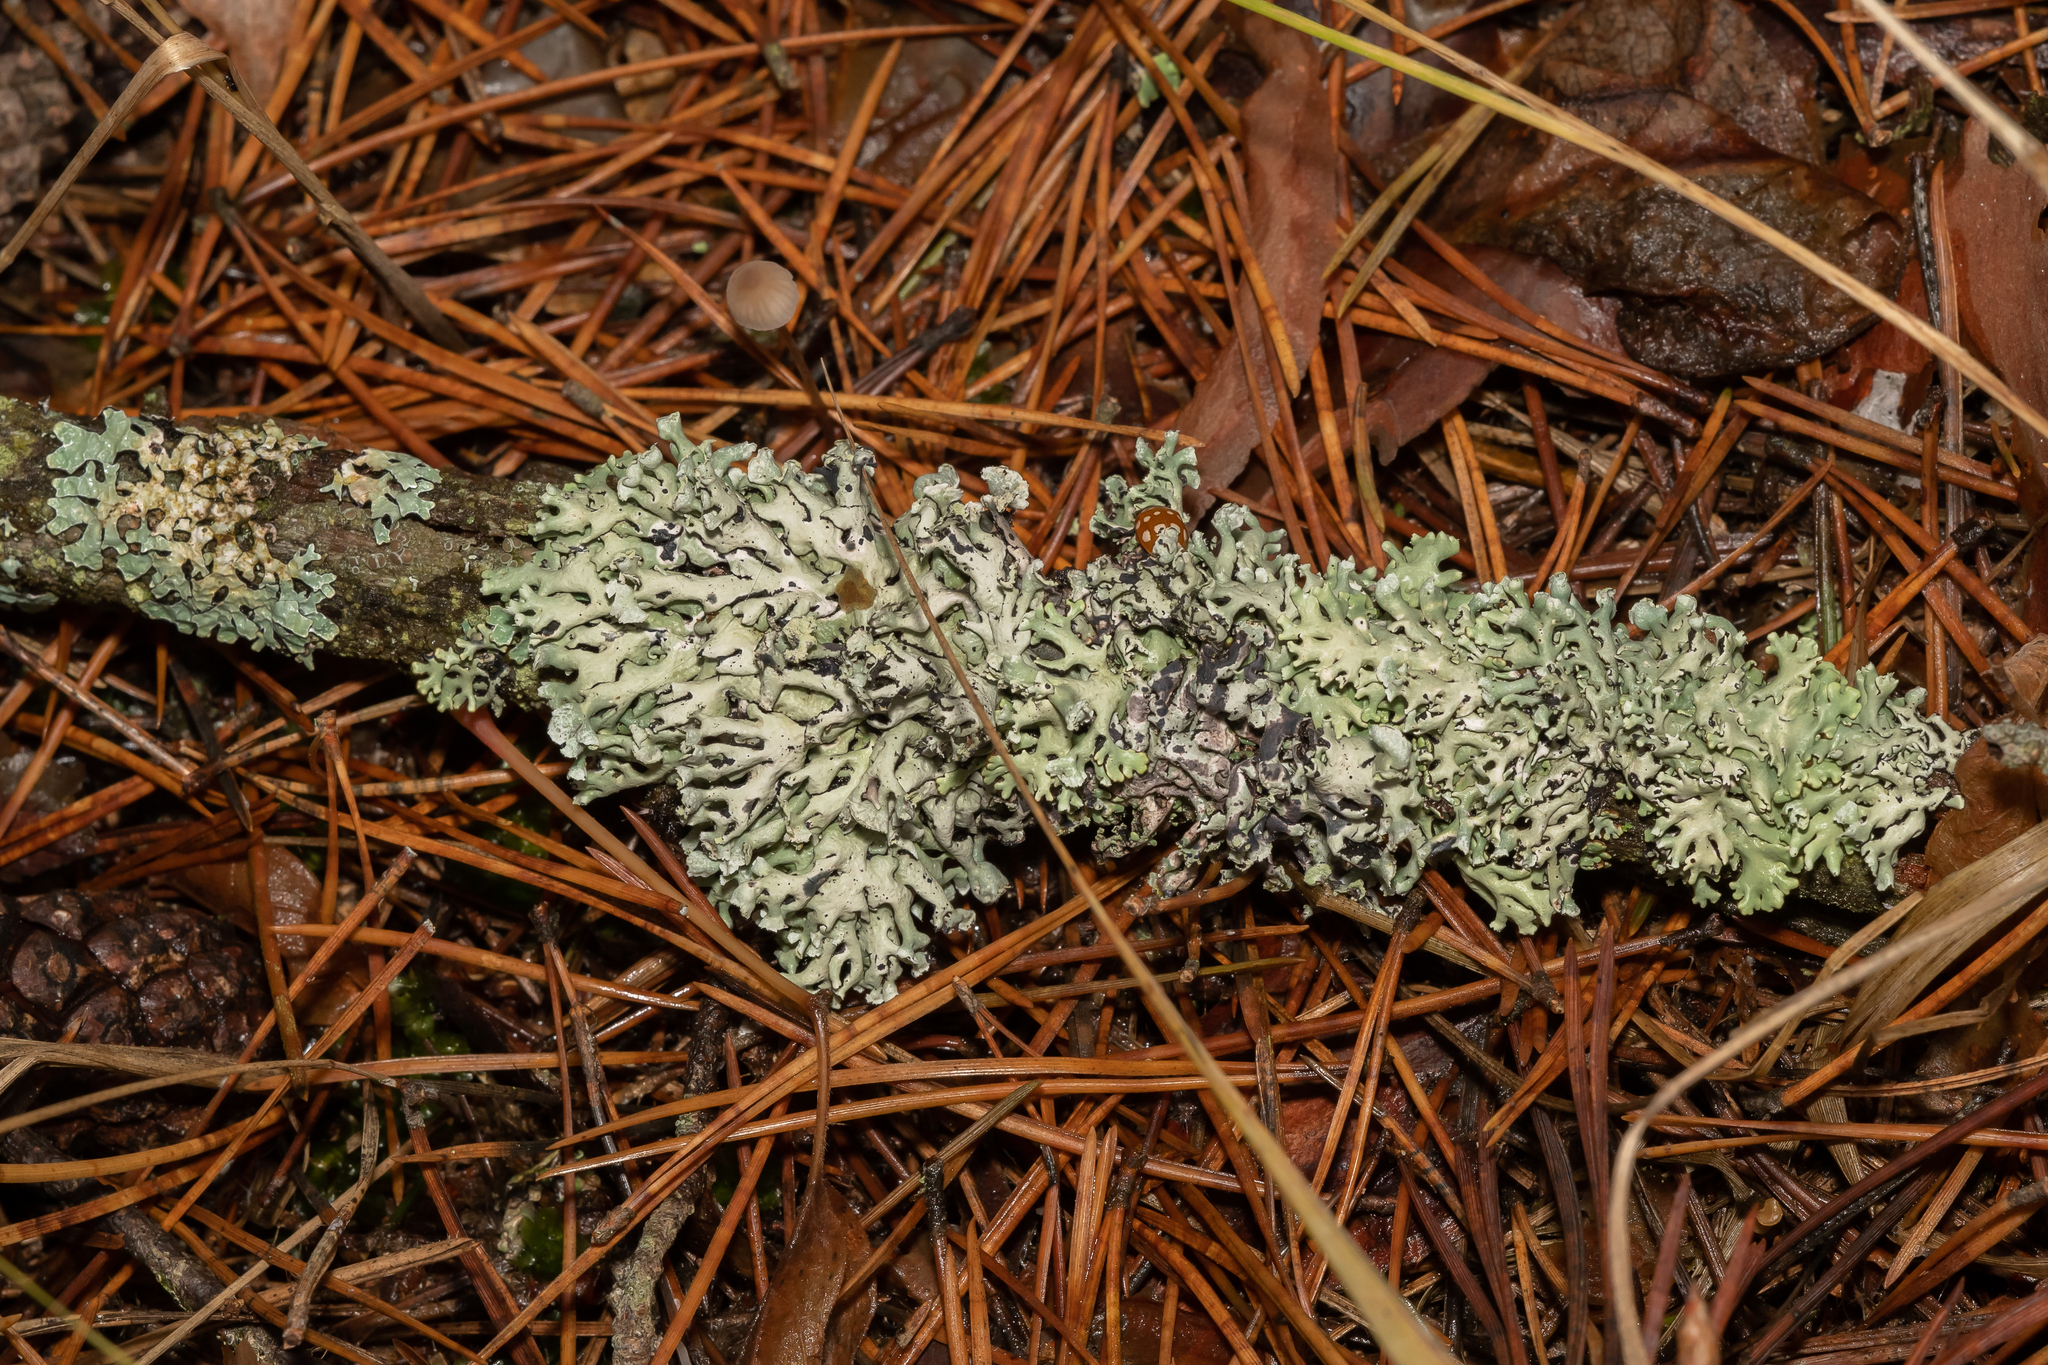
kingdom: Fungi
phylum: Ascomycota
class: Lecanoromycetes
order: Lecanorales
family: Parmeliaceae
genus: Hypogymnia
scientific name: Hypogymnia physodes
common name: Dark crottle
